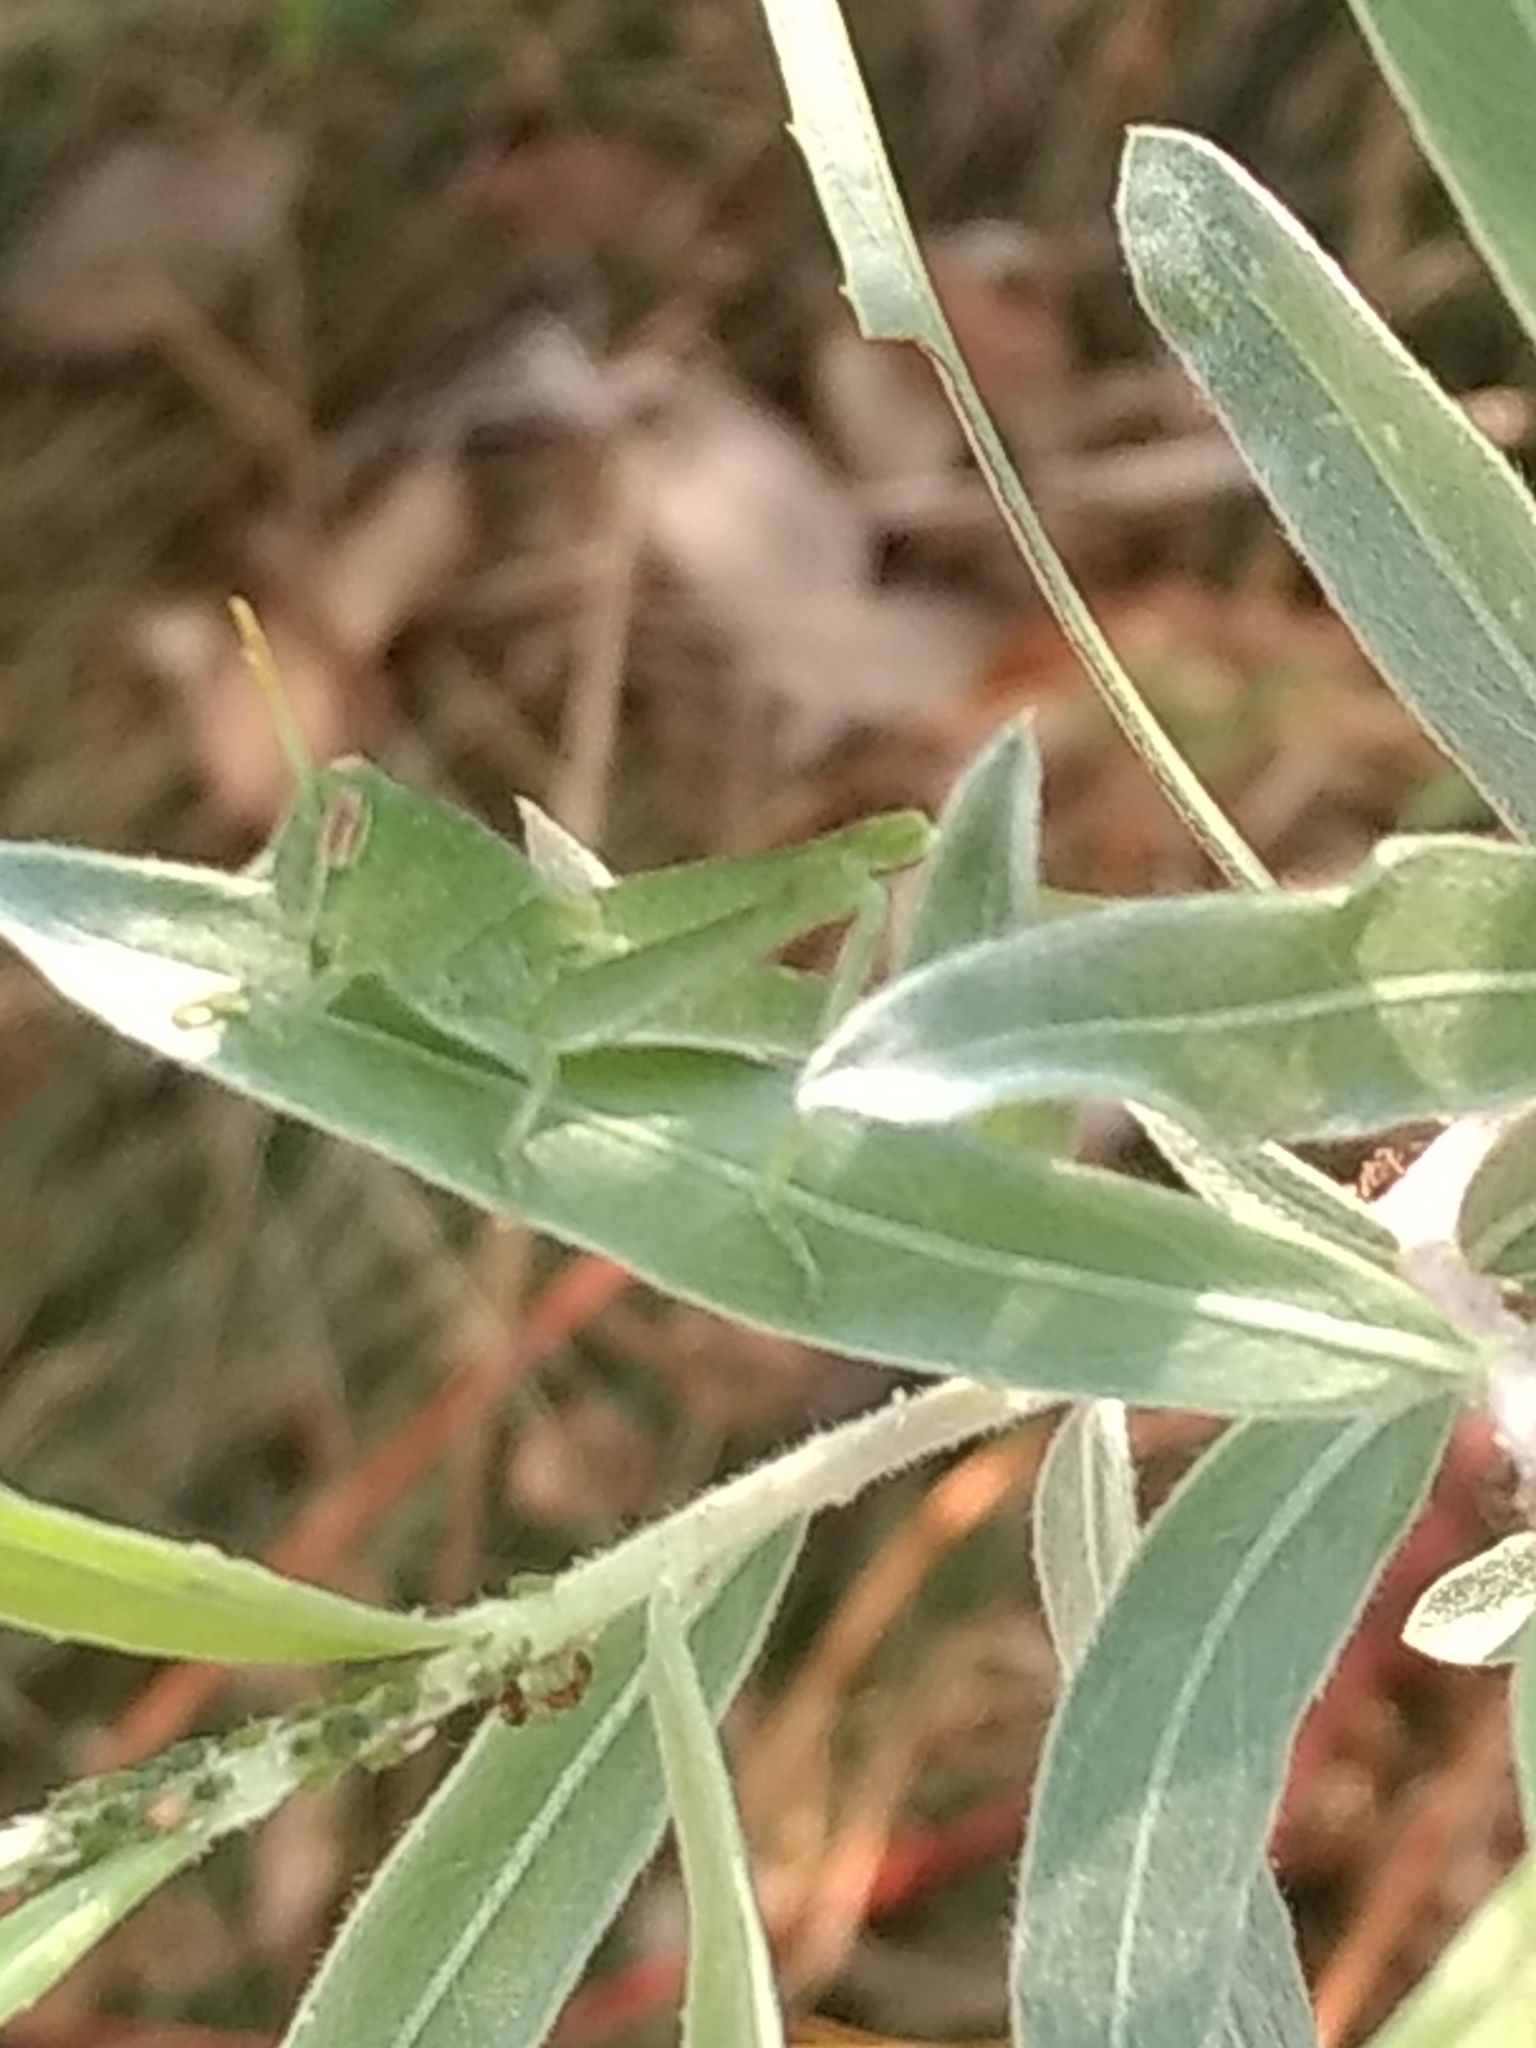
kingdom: Animalia
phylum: Arthropoda
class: Insecta
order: Orthoptera
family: Acrididae
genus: Schistocerca
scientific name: Schistocerca nitens
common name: Vagrant grasshopper
